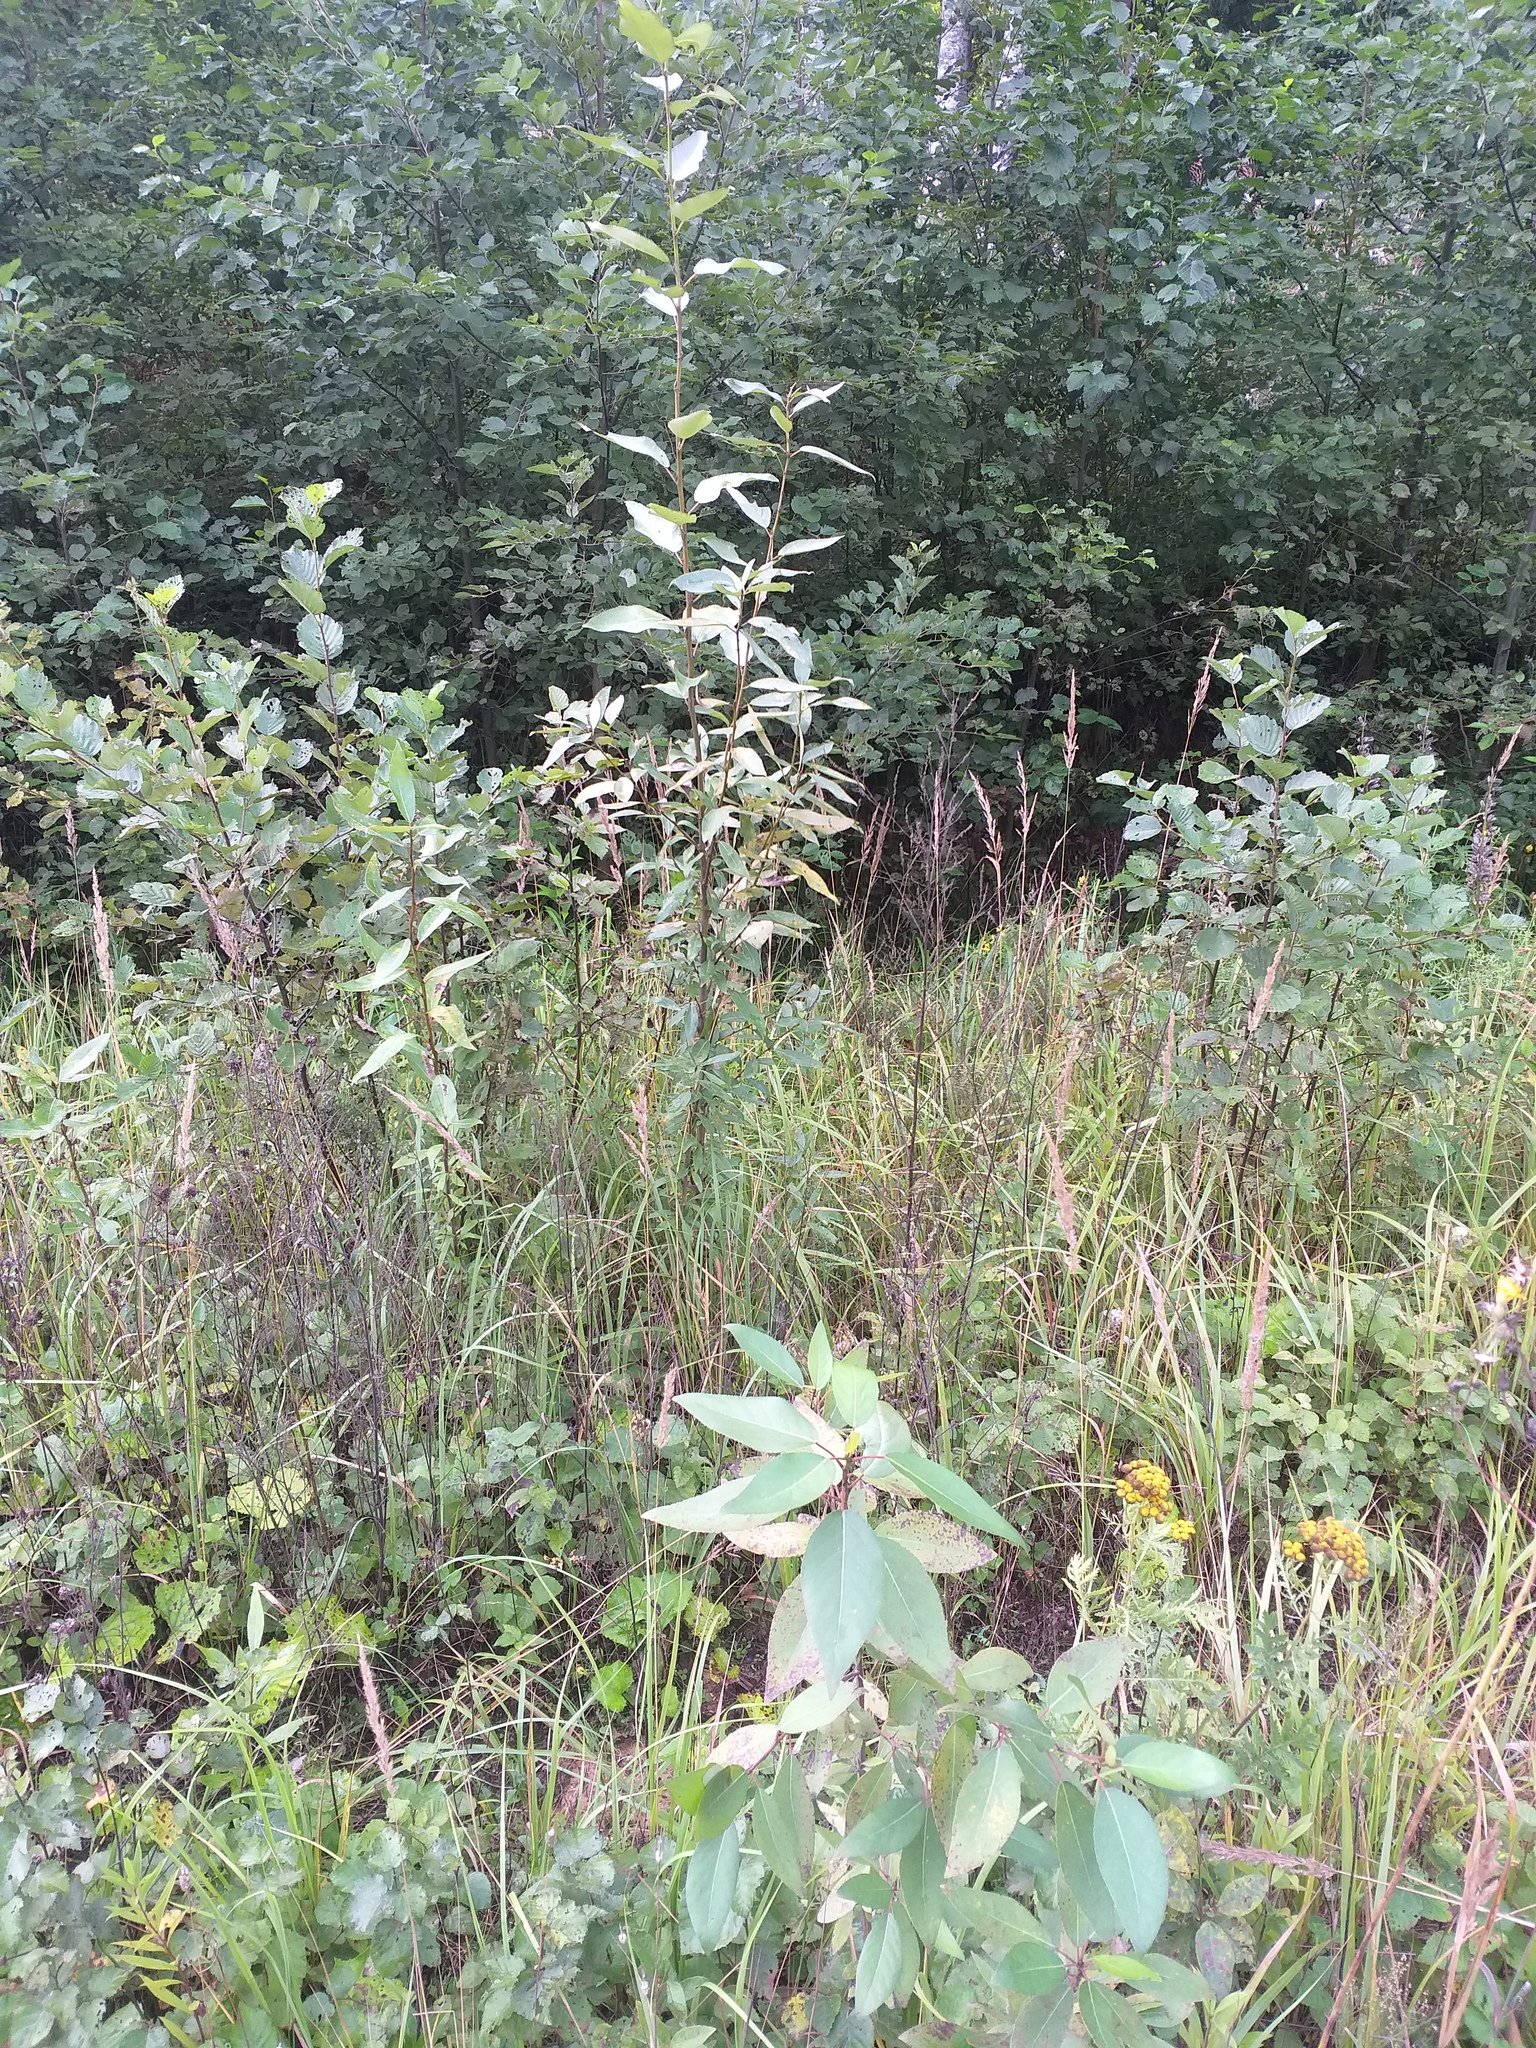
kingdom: Plantae
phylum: Tracheophyta
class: Magnoliopsida
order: Lamiales
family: Plantaginaceae
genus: Veronica
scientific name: Veronica chamaedrys
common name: Germander speedwell
